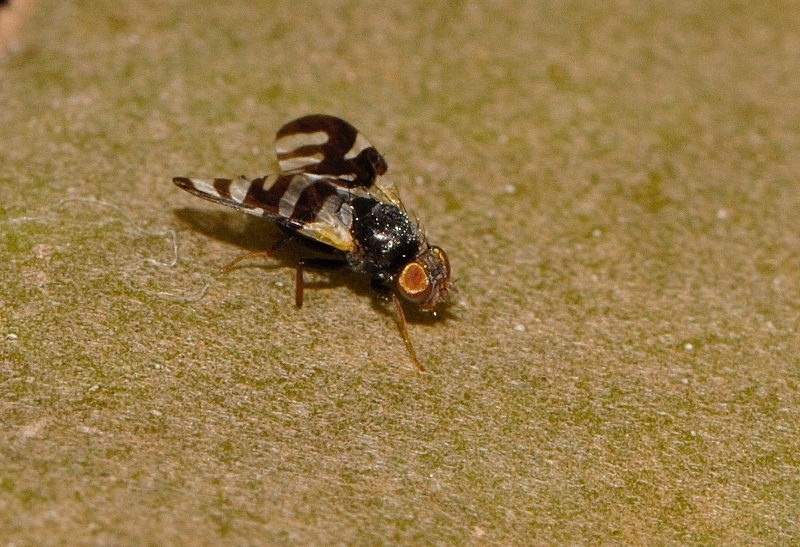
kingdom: Animalia
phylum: Arthropoda
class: Insecta
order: Diptera
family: Tephritidae
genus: Sphaeniscus
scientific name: Sphaeniscus atilius
